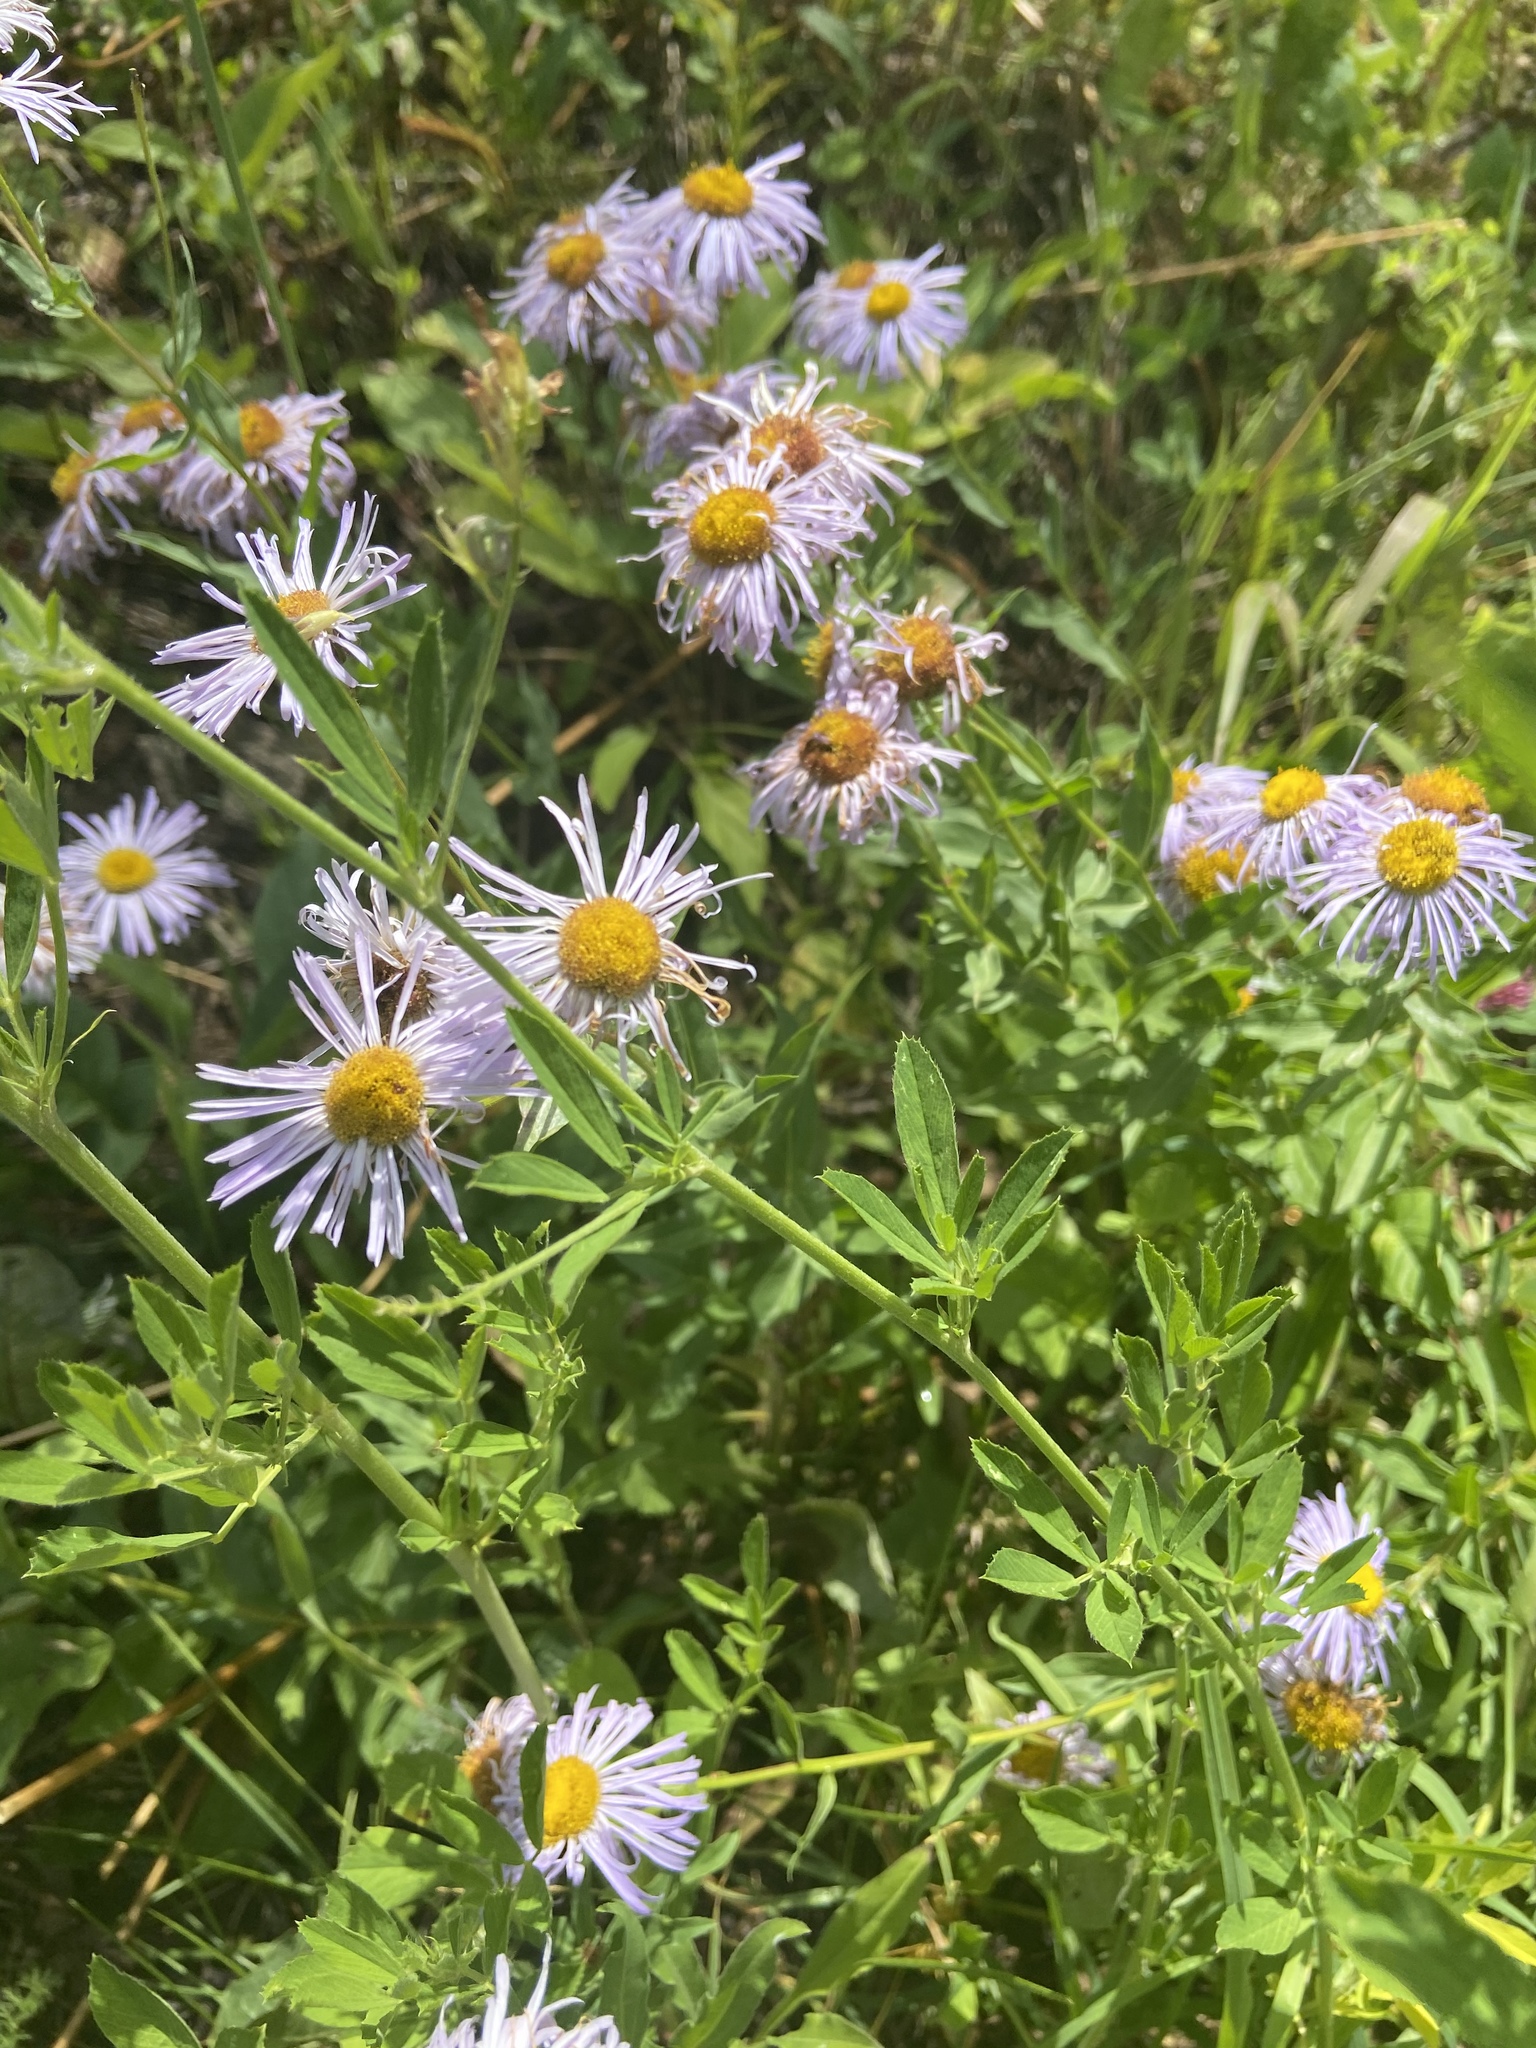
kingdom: Plantae
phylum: Tracheophyta
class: Magnoliopsida
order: Asterales
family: Asteraceae
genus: Erigeron
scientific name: Erigeron speciosus
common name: Aspen fleabane
